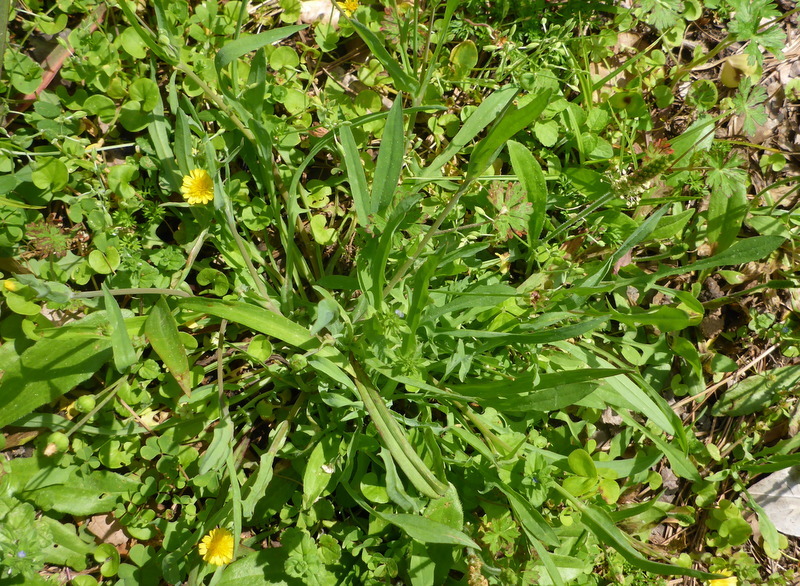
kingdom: Plantae
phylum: Tracheophyta
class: Magnoliopsida
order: Asterales
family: Asteraceae
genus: Krigia
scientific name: Krigia cespitosa
